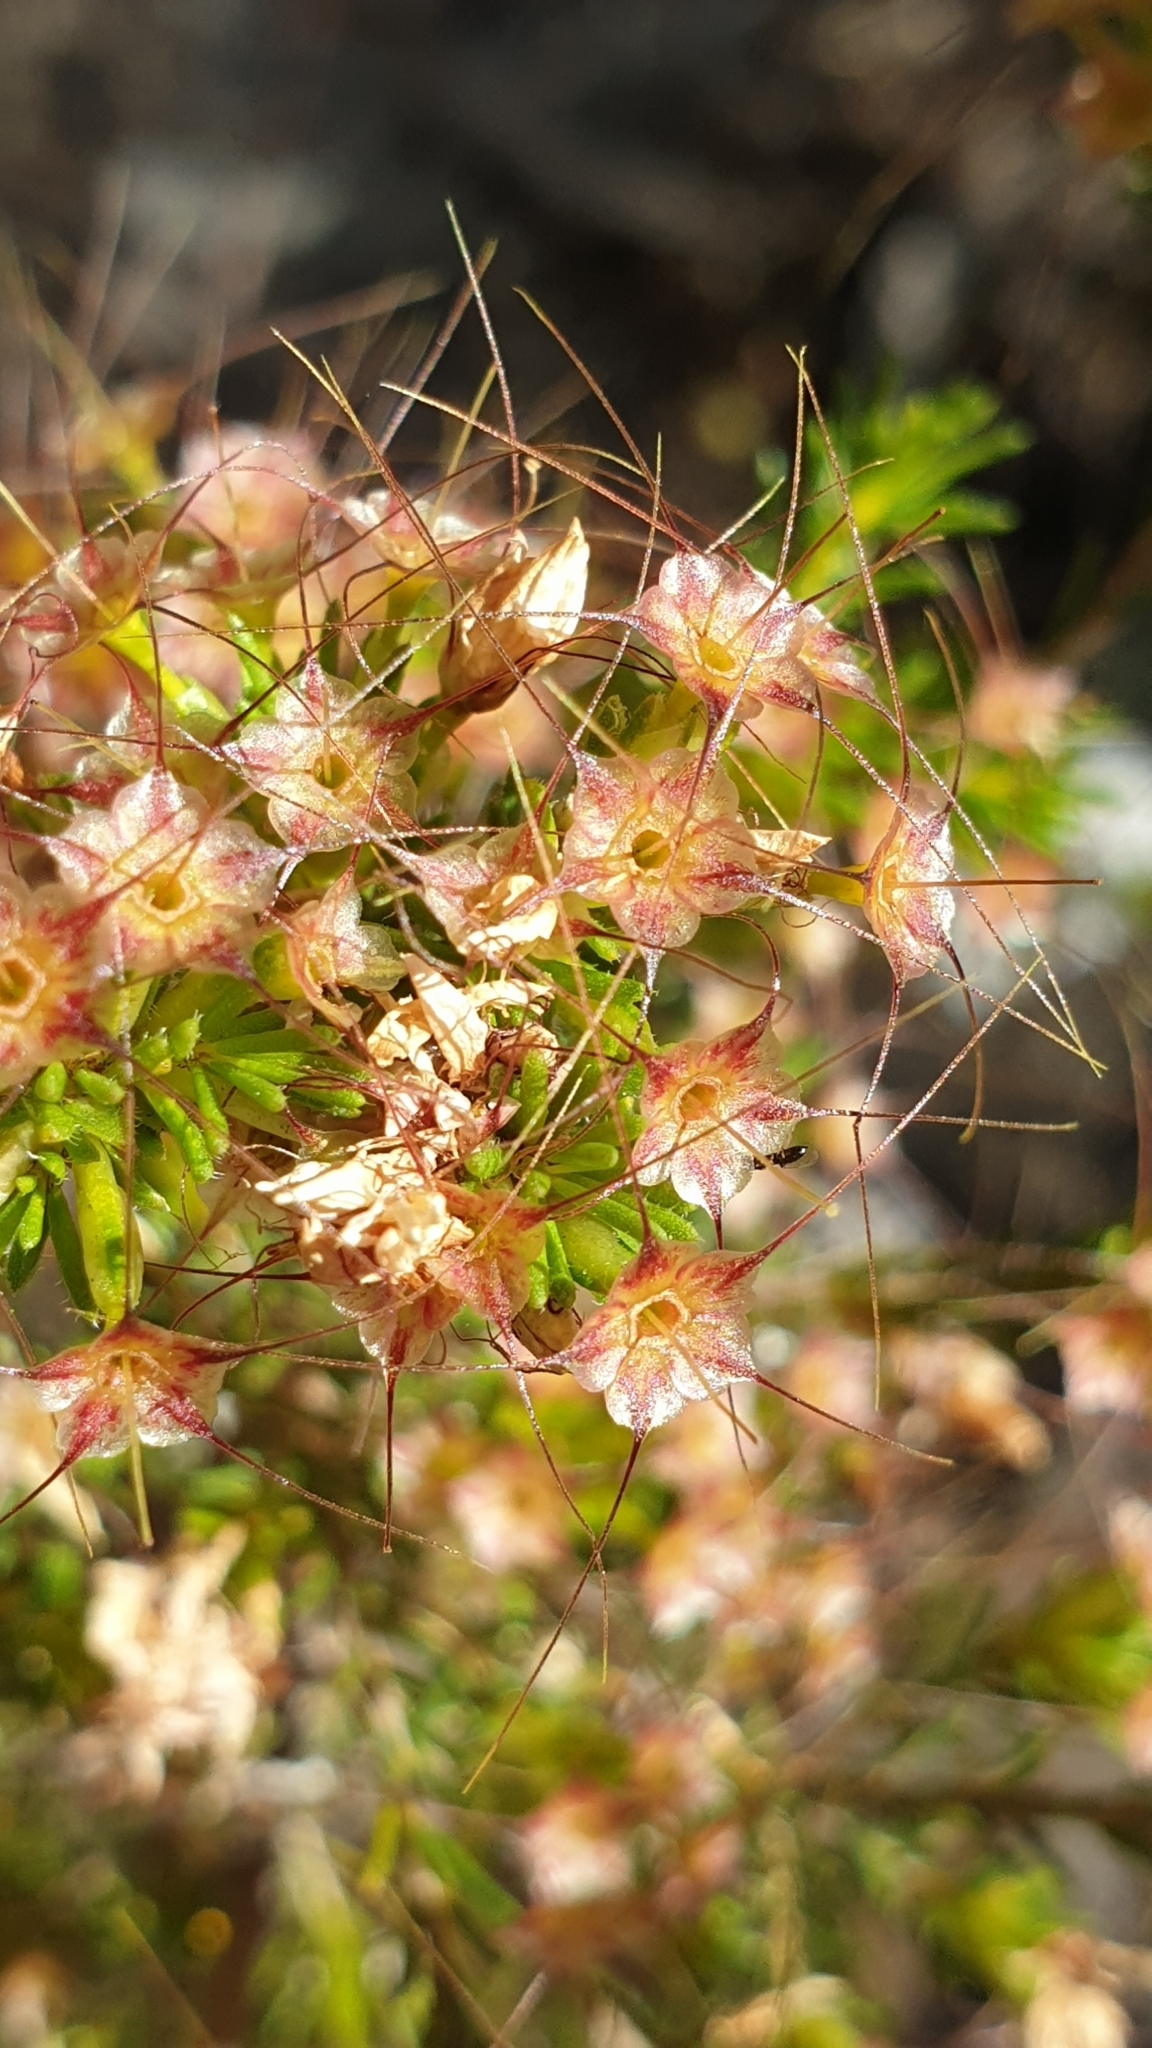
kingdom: Plantae
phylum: Tracheophyta
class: Magnoliopsida
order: Myrtales
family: Myrtaceae
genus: Calytrix
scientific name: Calytrix tetragona
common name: Common fringe myrtle
